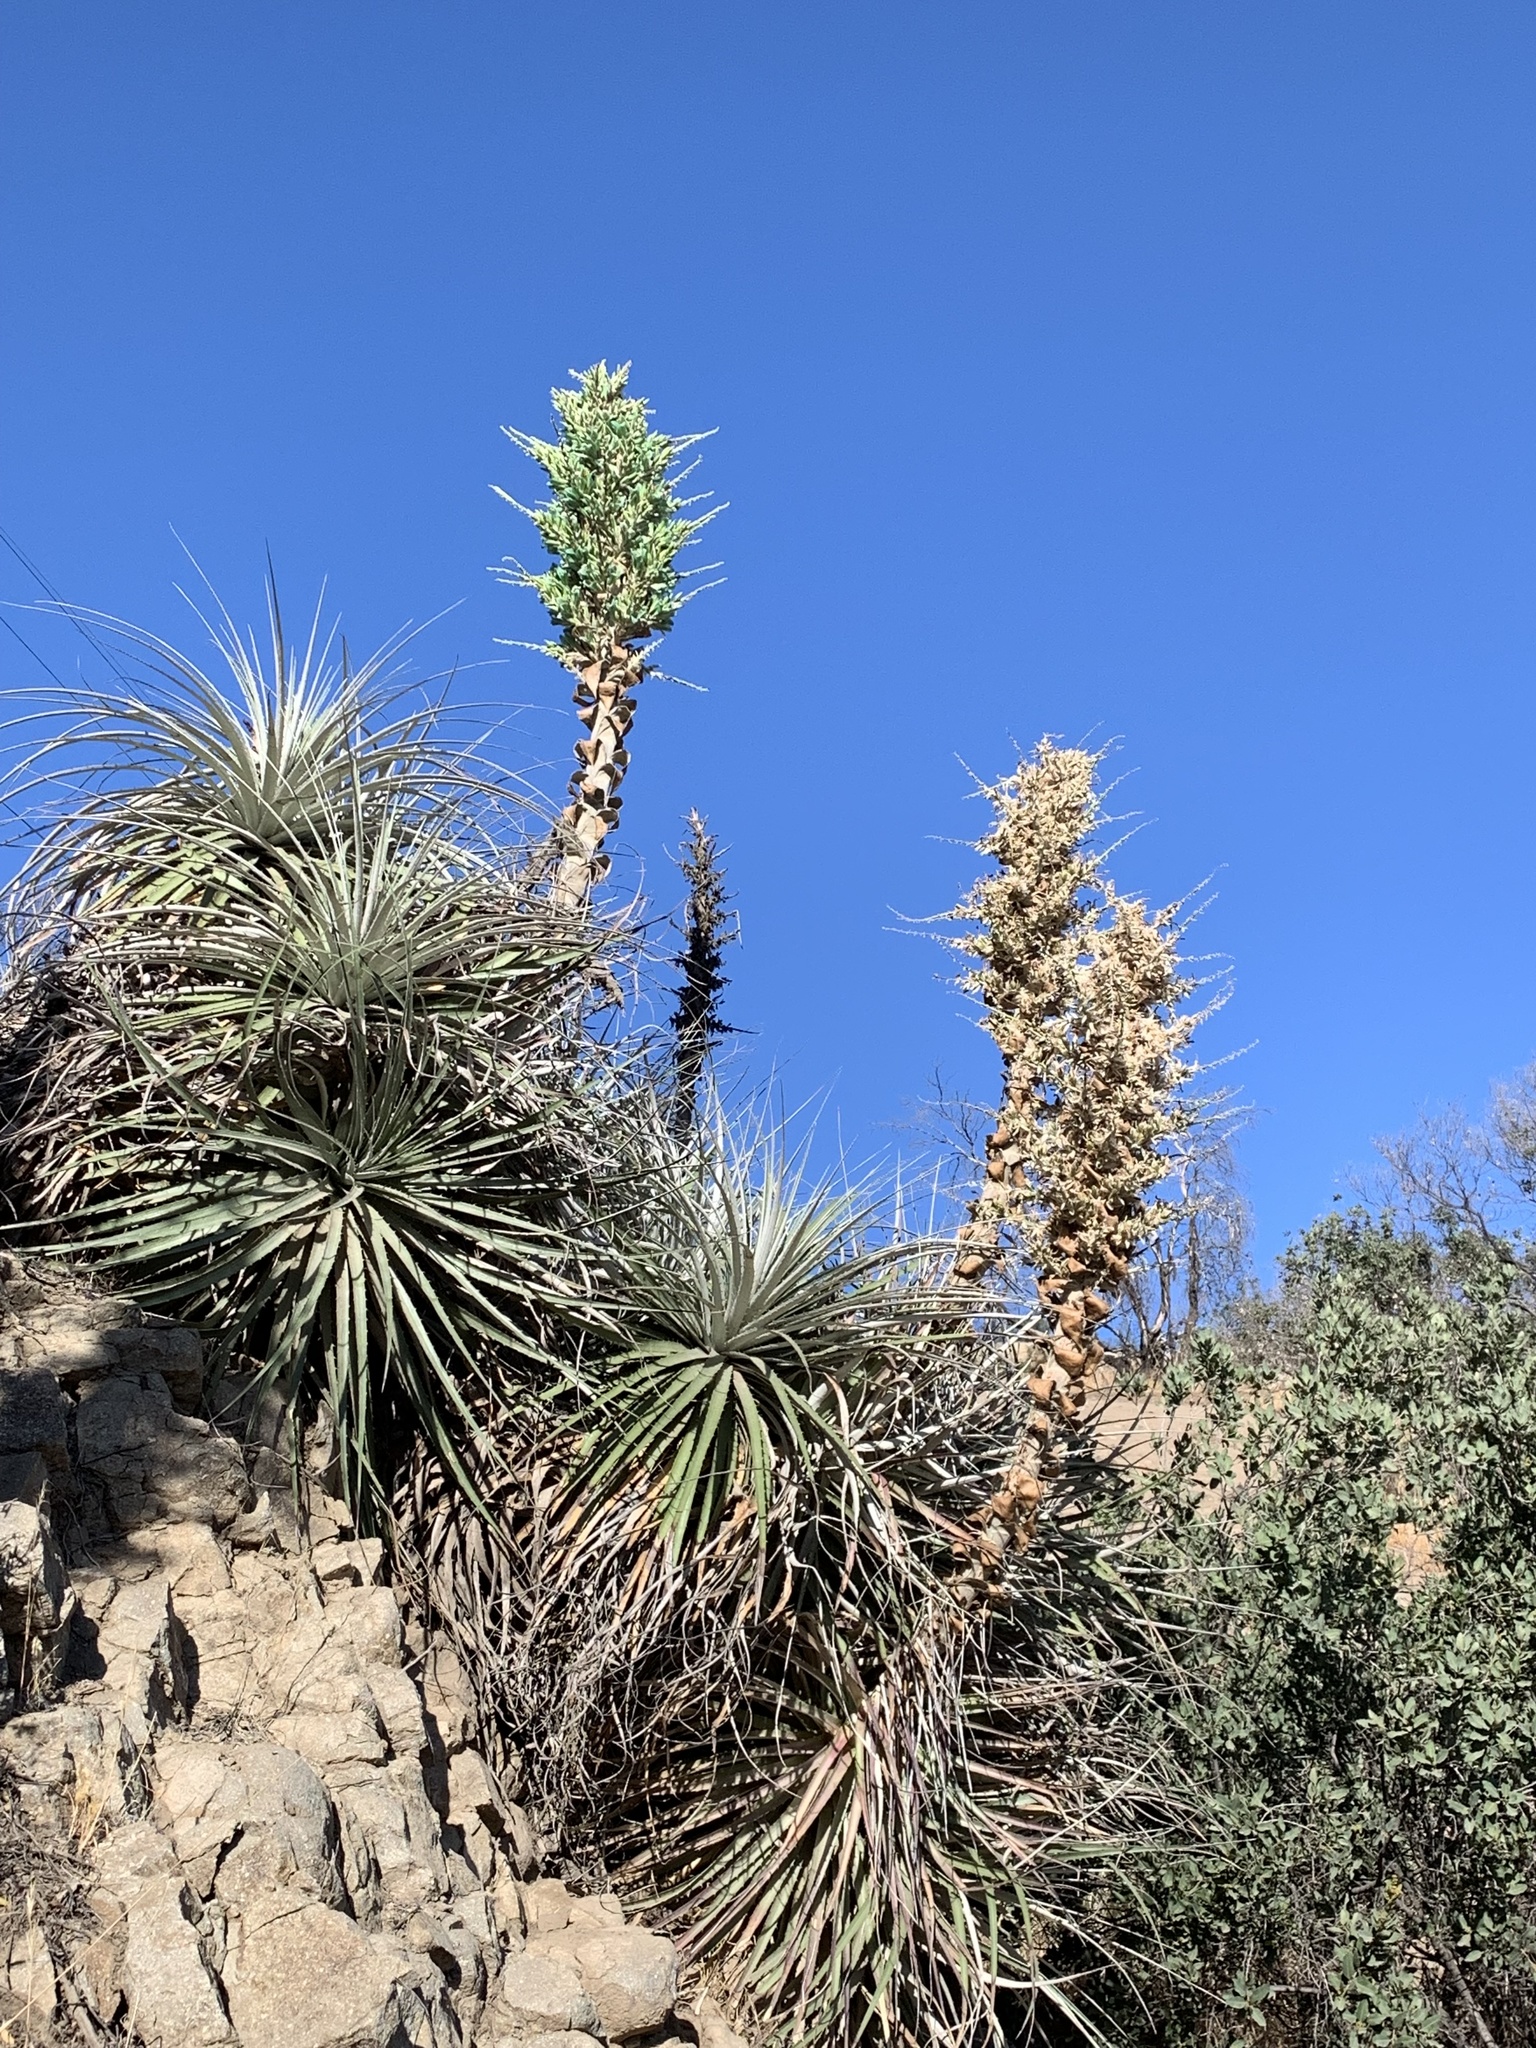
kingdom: Plantae
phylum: Tracheophyta
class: Liliopsida
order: Poales
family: Bromeliaceae
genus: Puya
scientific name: Puya alpestris
